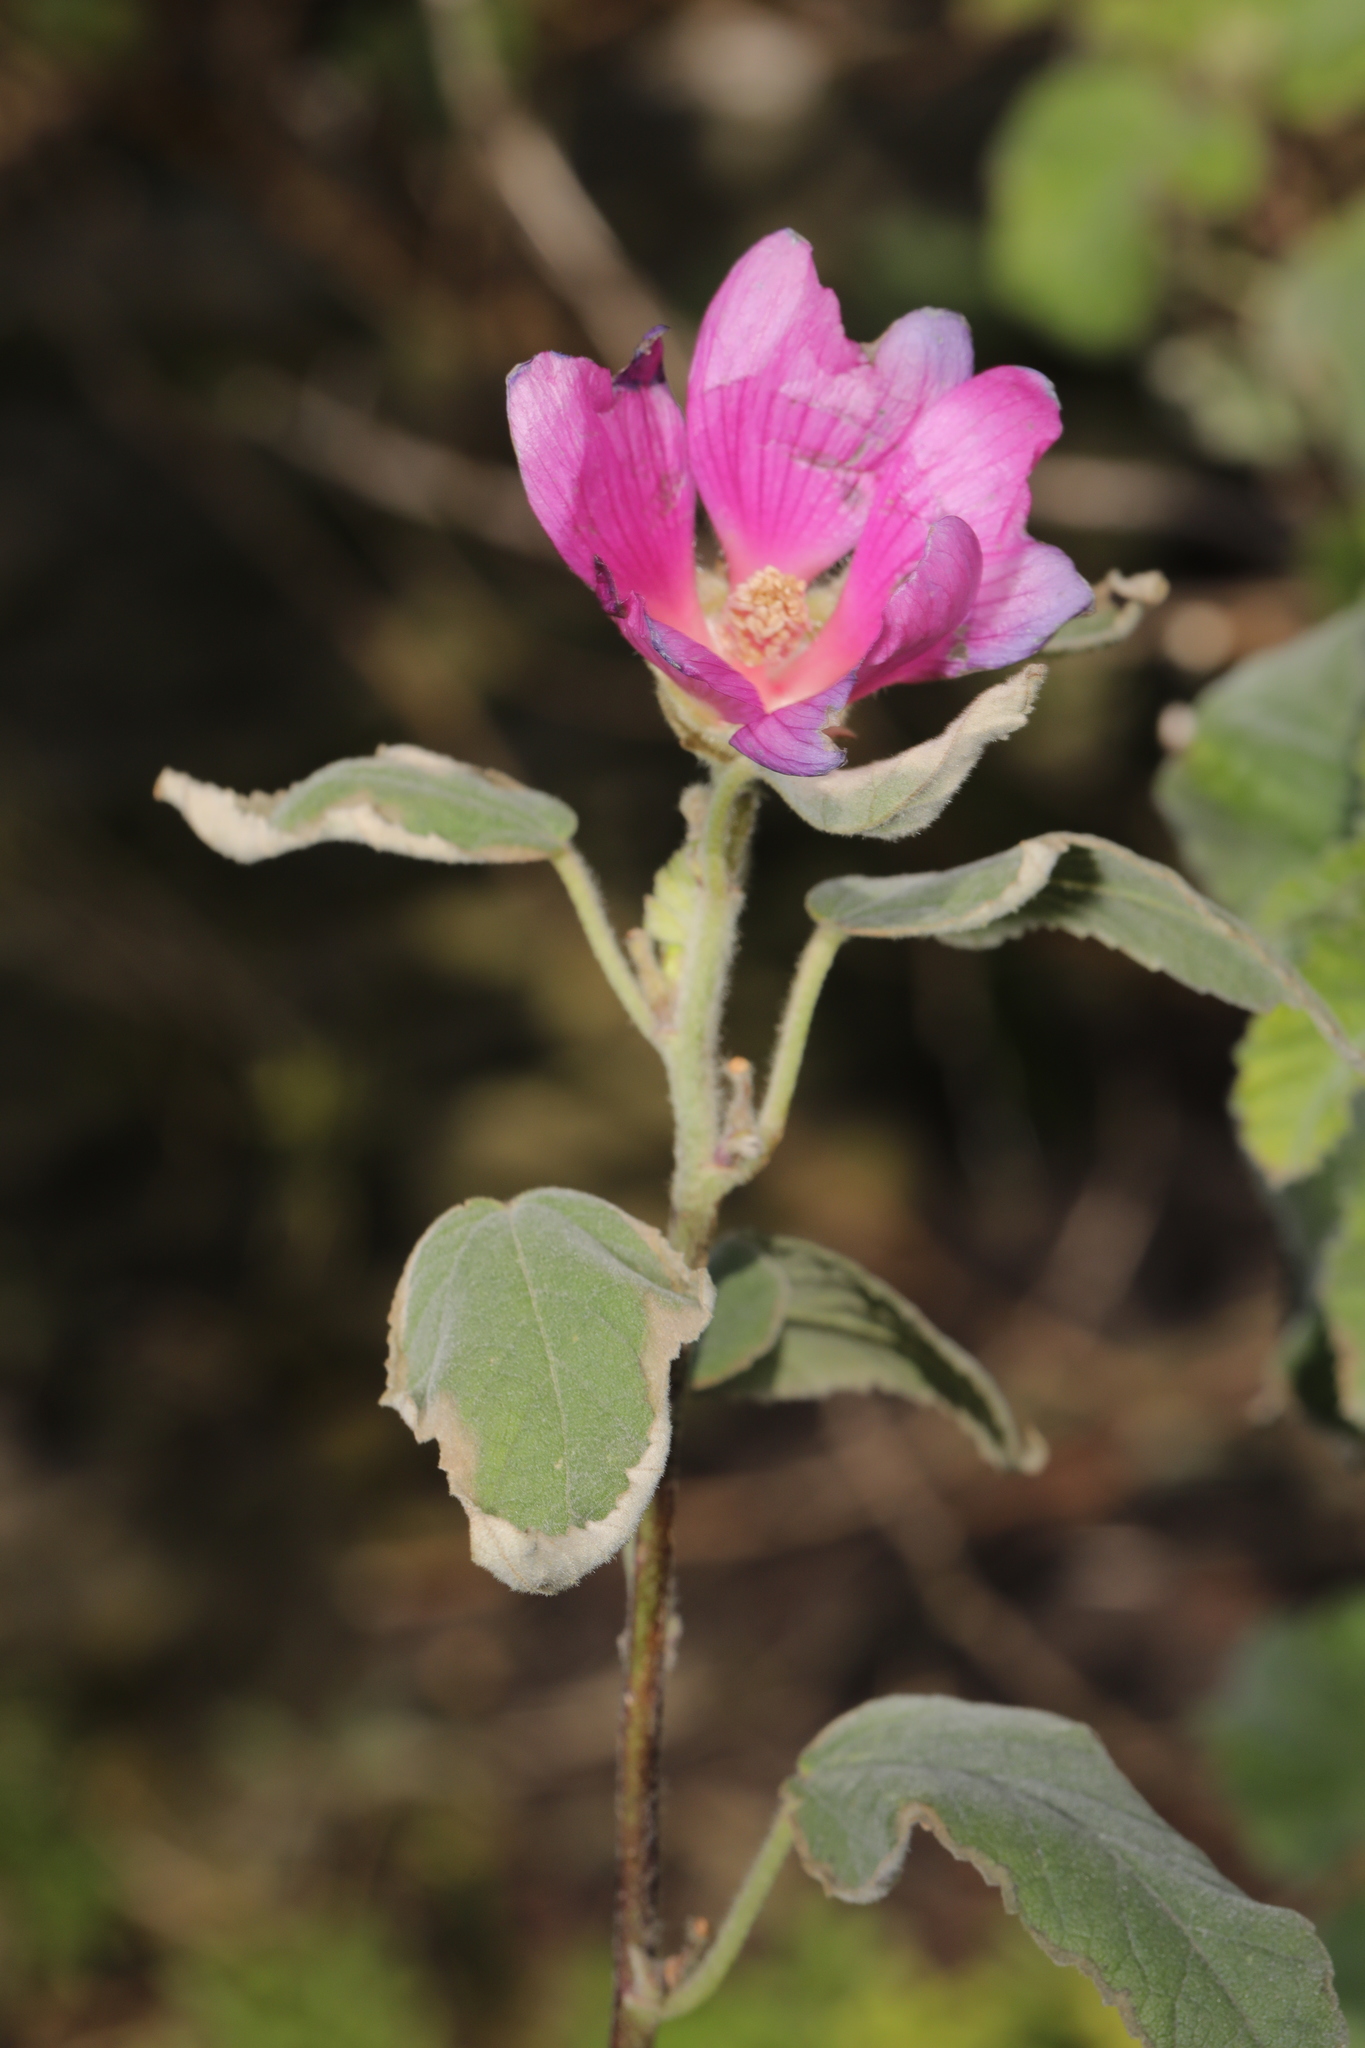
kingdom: Plantae
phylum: Tracheophyta
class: Magnoliopsida
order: Malvales
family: Malvaceae
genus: Malva
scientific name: Malva clementii
